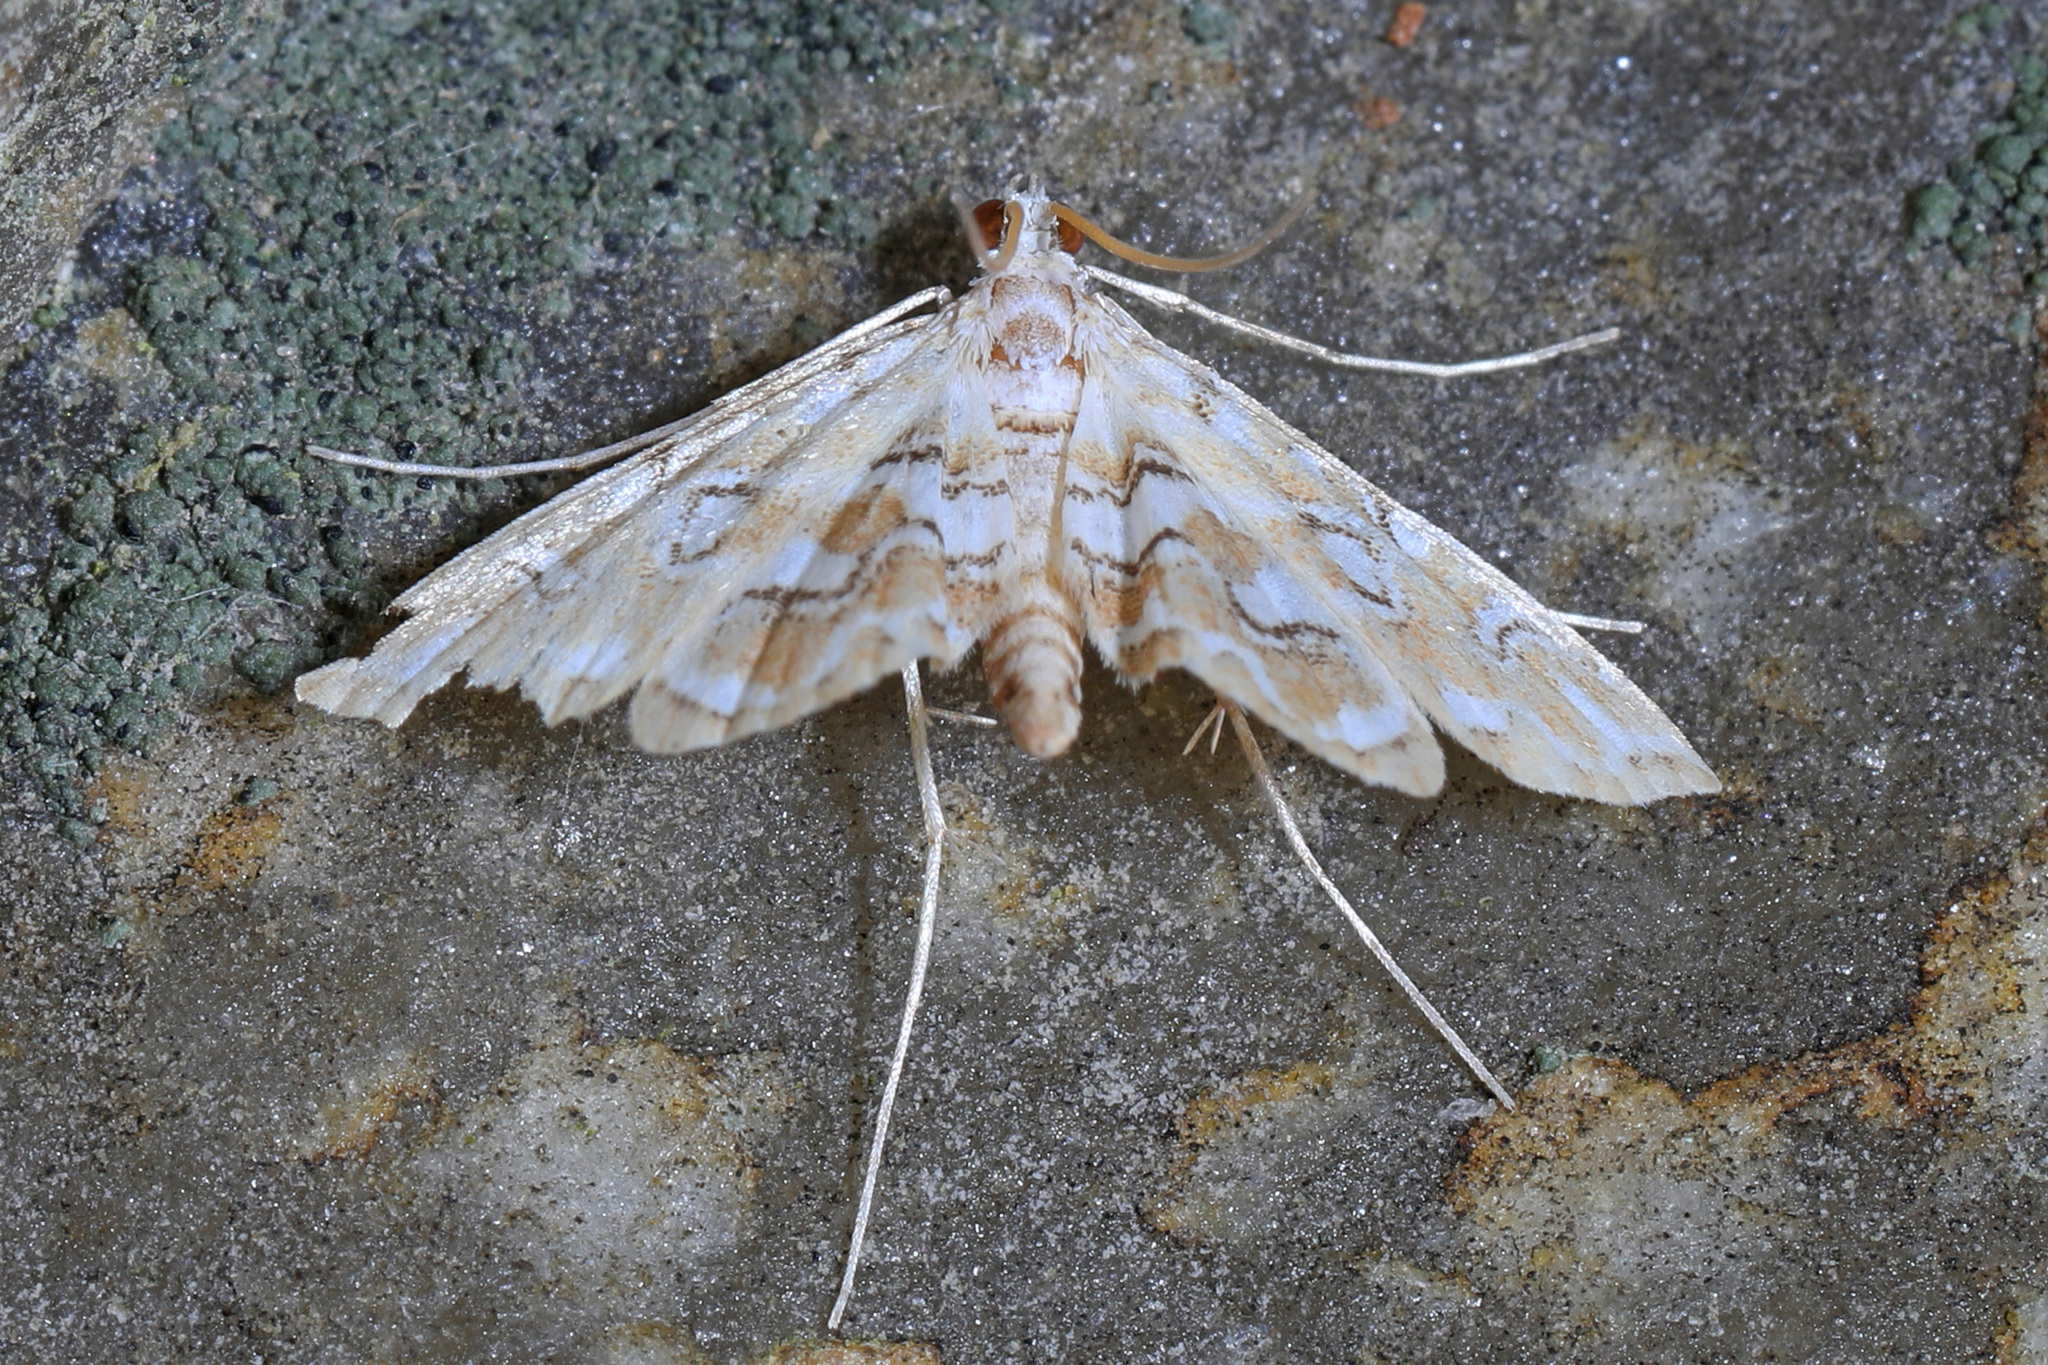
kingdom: Animalia
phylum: Arthropoda
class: Insecta
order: Lepidoptera
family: Crambidae
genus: Elophila
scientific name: Elophila icciusalis
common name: Pondside pyralid moth
